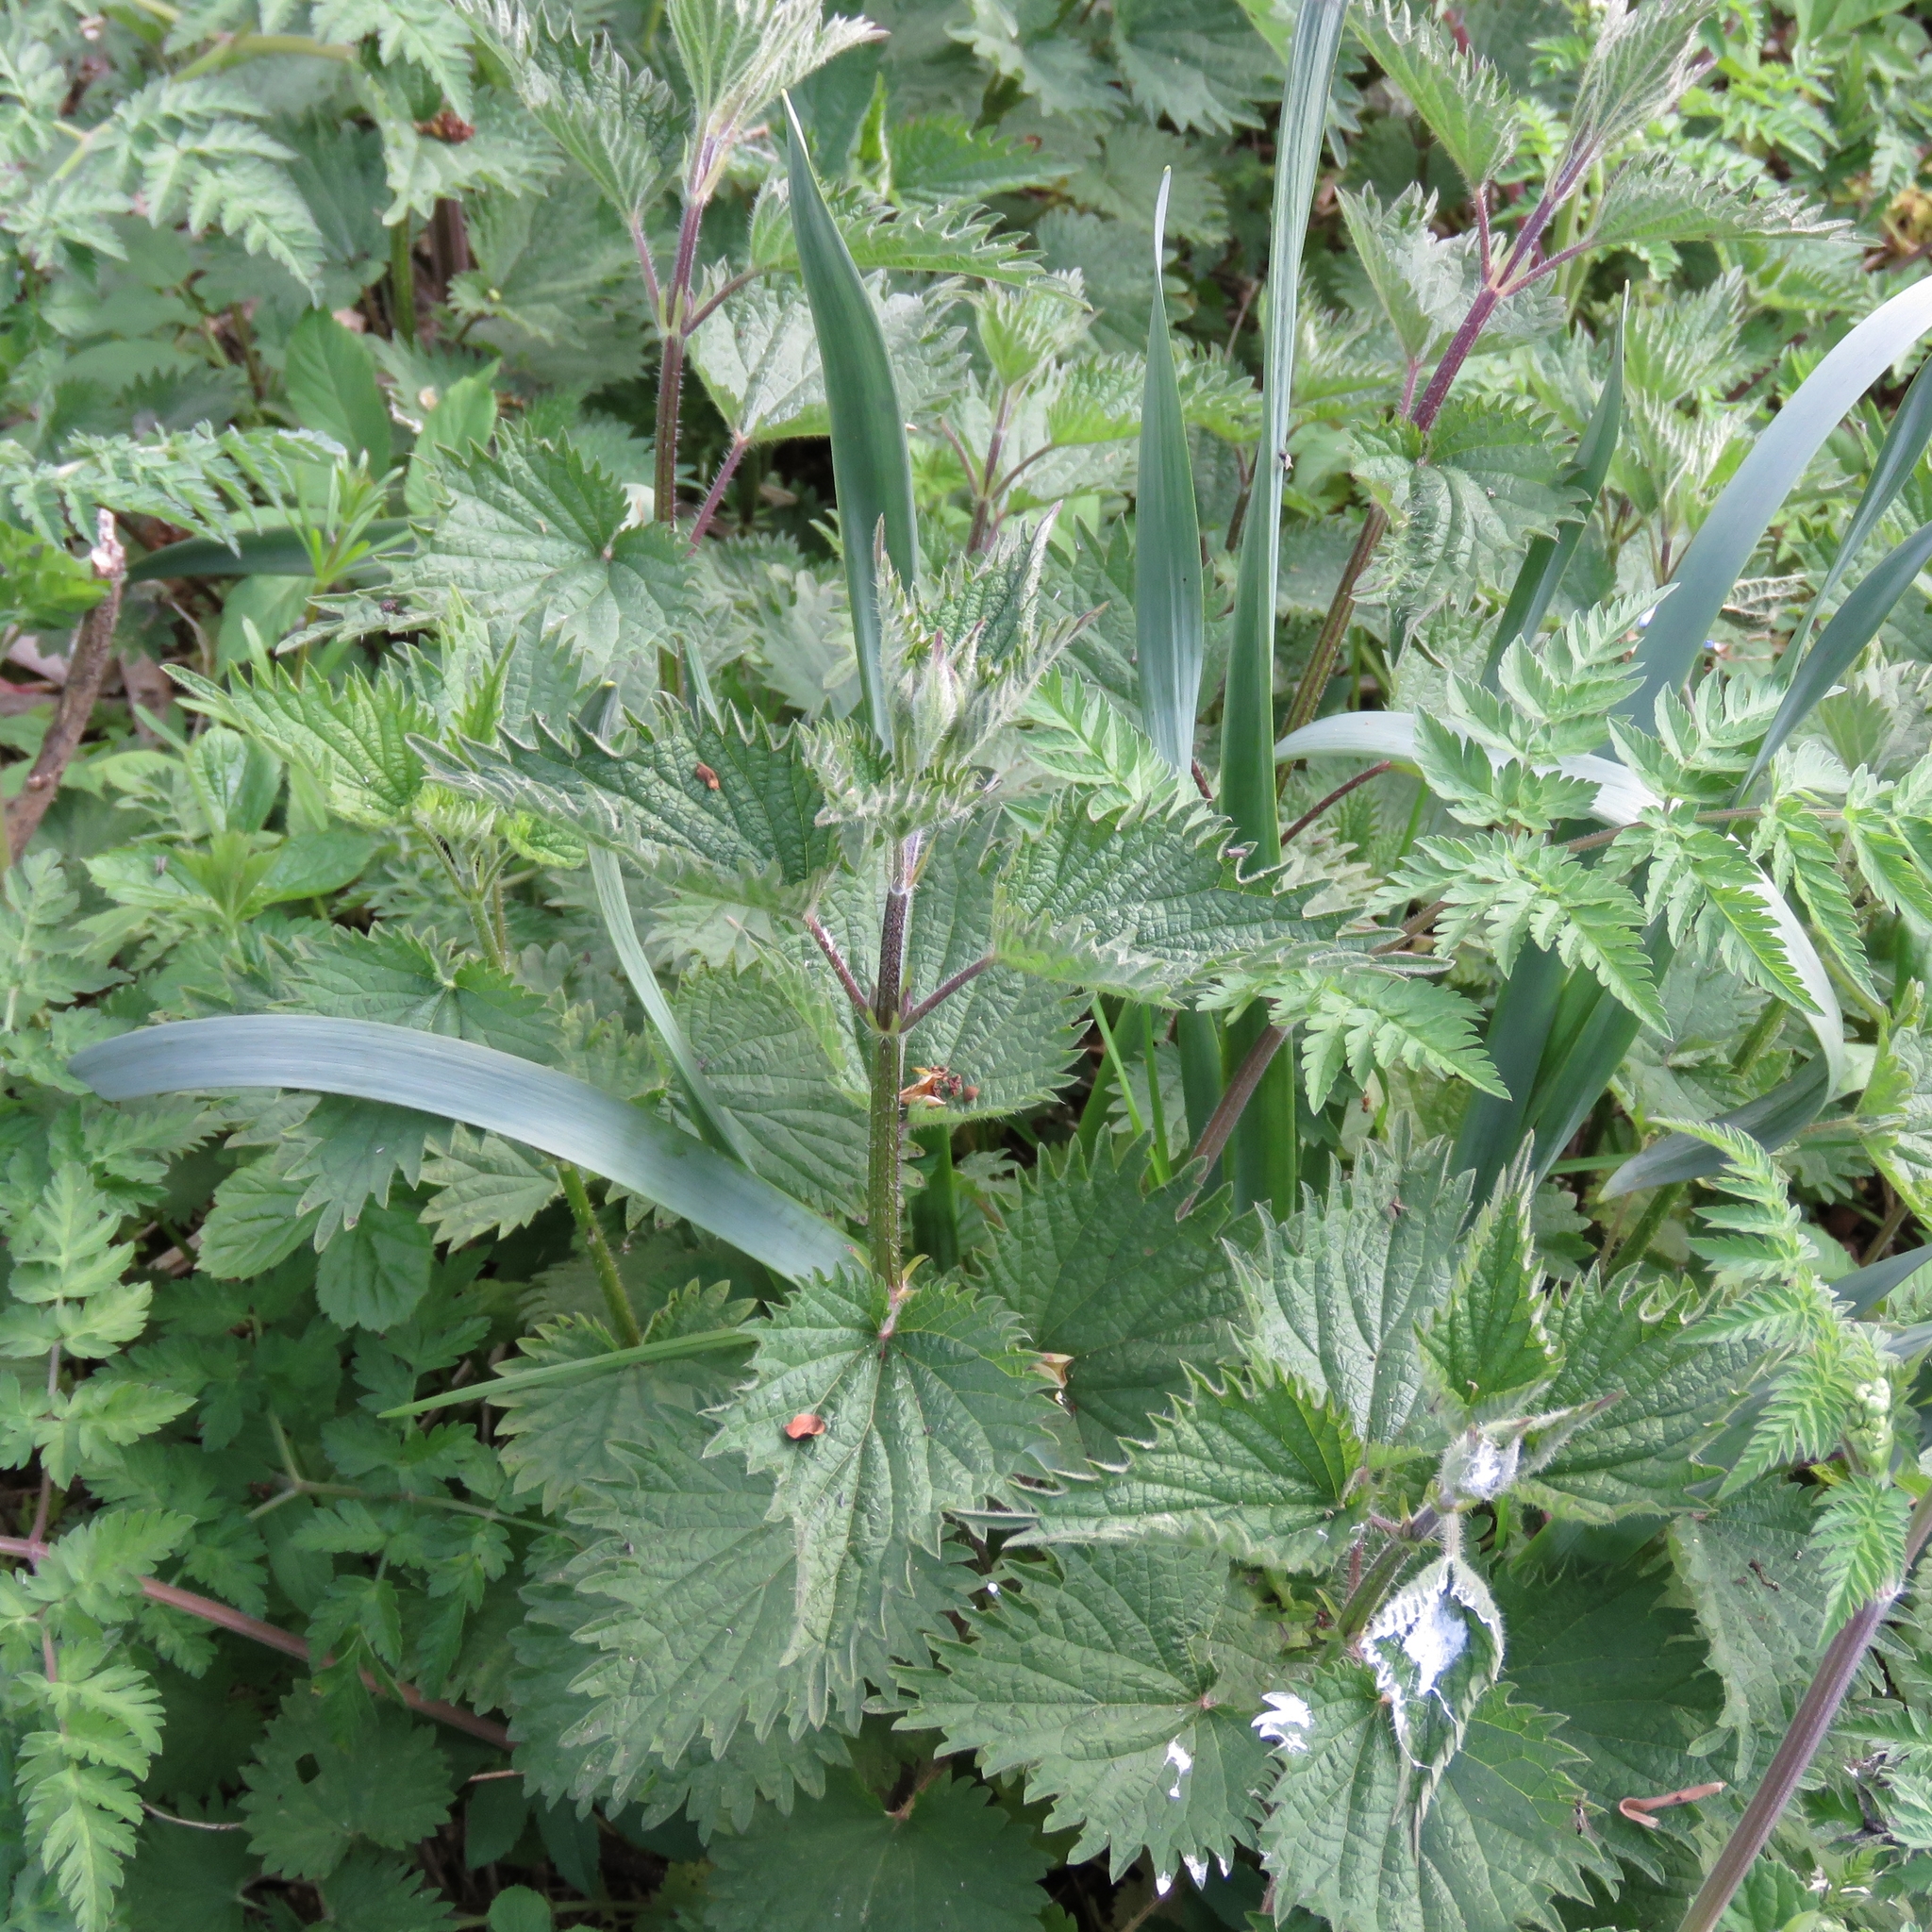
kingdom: Plantae
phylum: Tracheophyta
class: Magnoliopsida
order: Rosales
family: Urticaceae
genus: Urtica
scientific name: Urtica dioica
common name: Common nettle
